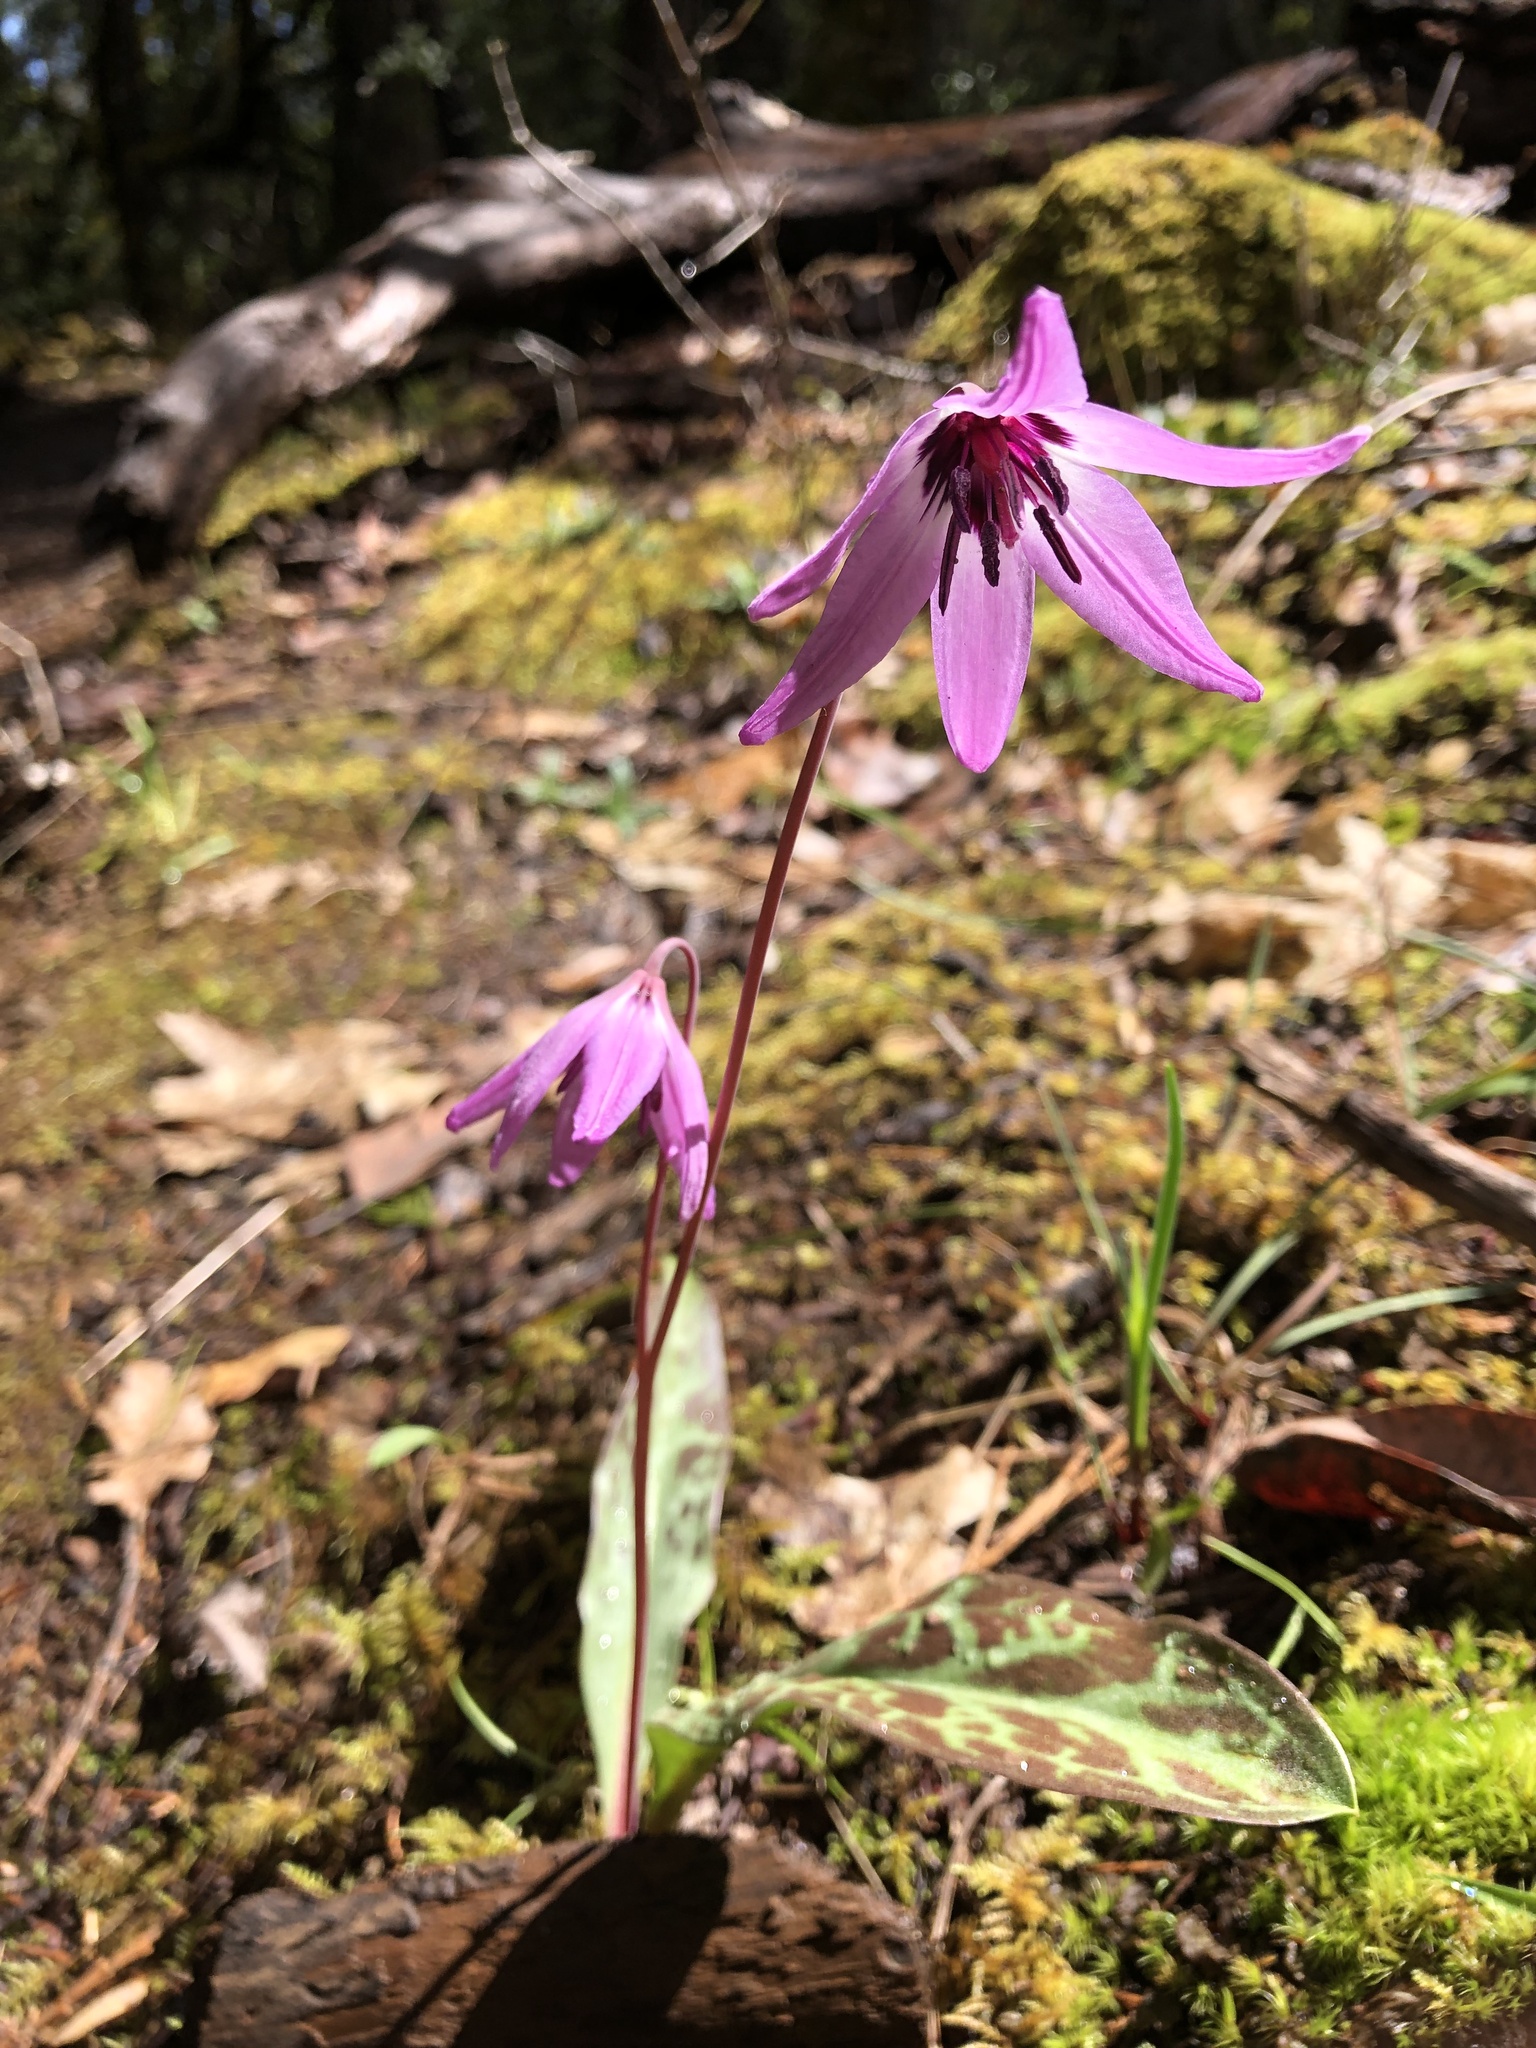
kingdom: Plantae
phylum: Tracheophyta
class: Liliopsida
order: Liliales
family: Liliaceae
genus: Erythronium
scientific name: Erythronium hendersonii
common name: Henderson's fawn-lily
